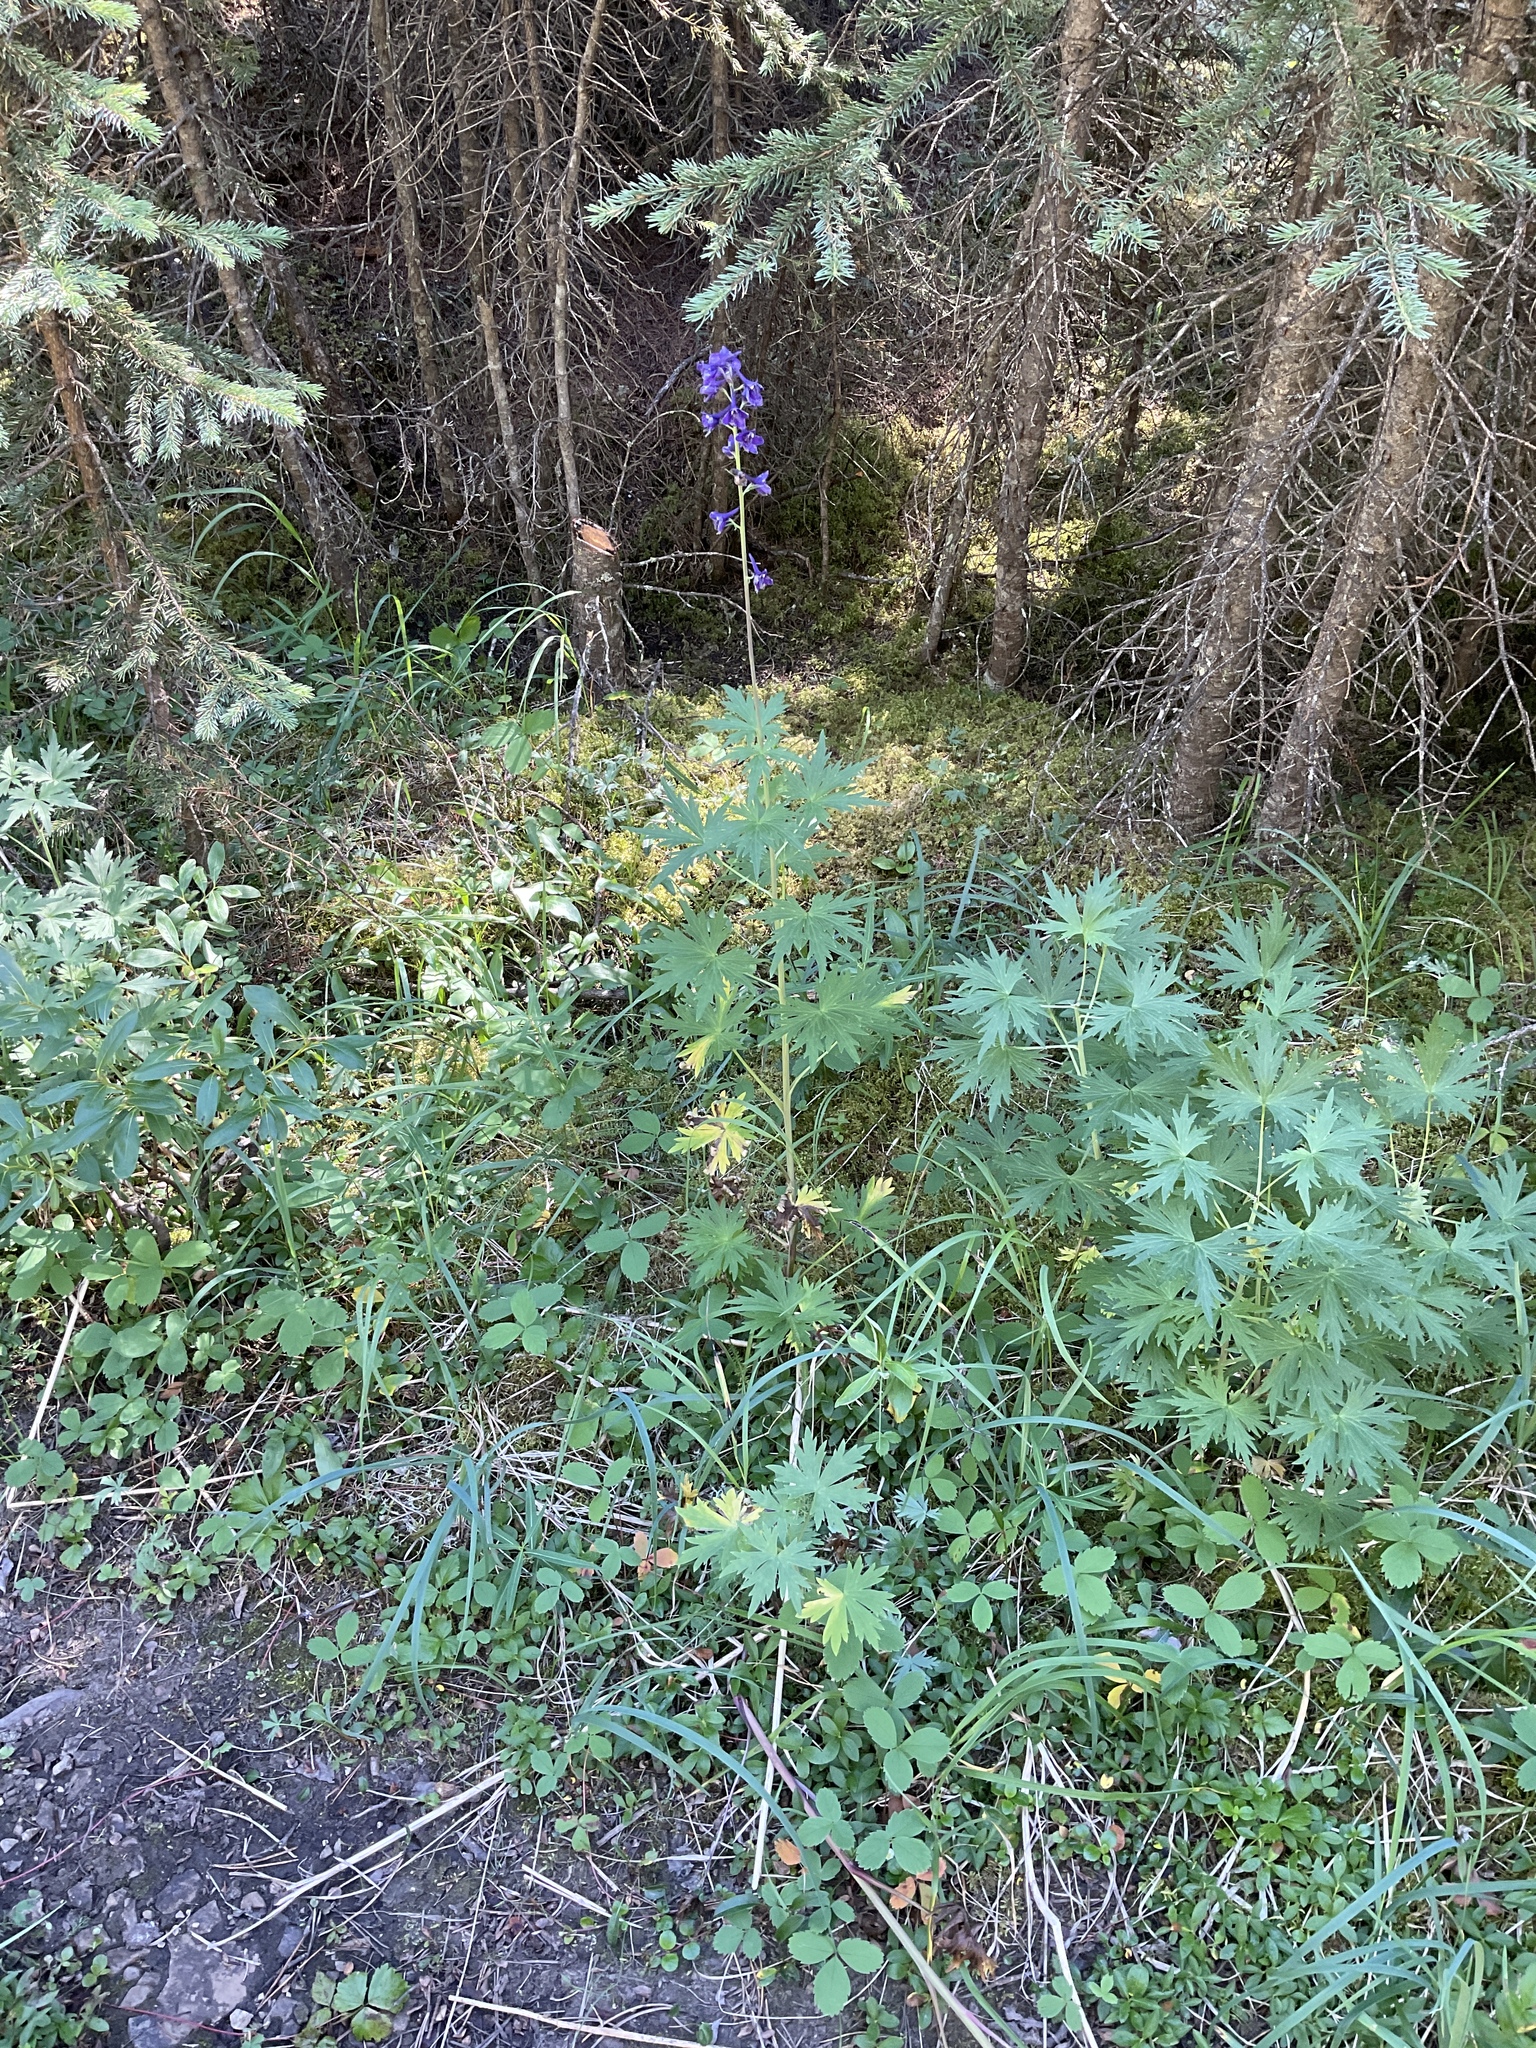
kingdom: Plantae
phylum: Tracheophyta
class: Magnoliopsida
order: Ranunculales
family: Ranunculaceae
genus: Delphinium
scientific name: Delphinium glaucum
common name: Brown's larkspur
